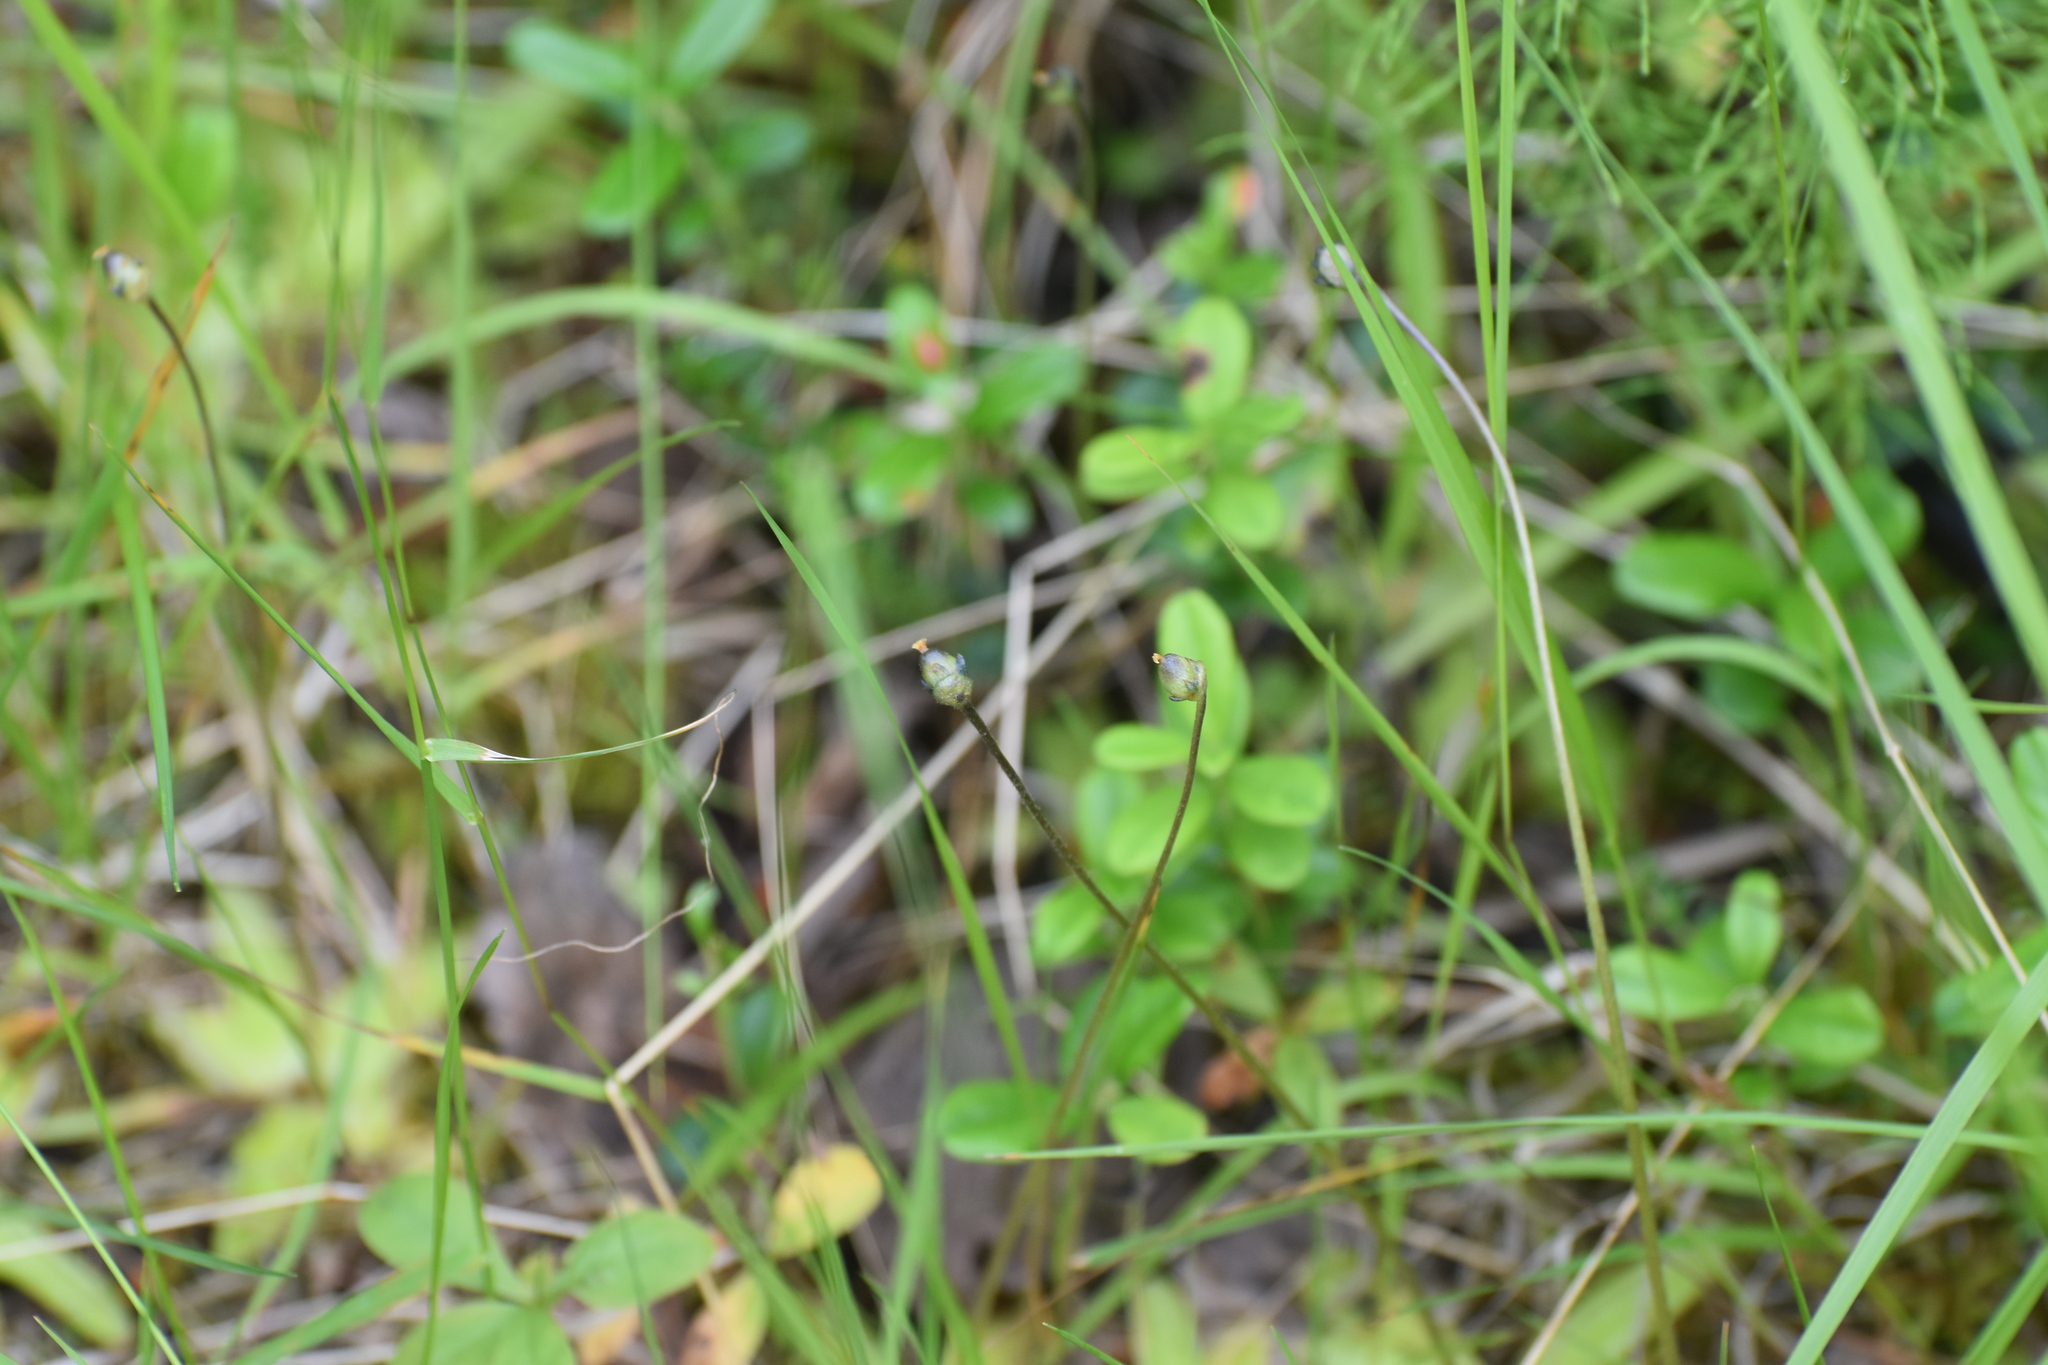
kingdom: Plantae
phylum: Tracheophyta
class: Magnoliopsida
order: Lamiales
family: Lentibulariaceae
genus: Pinguicula
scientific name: Pinguicula vulgaris
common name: Common butterwort
